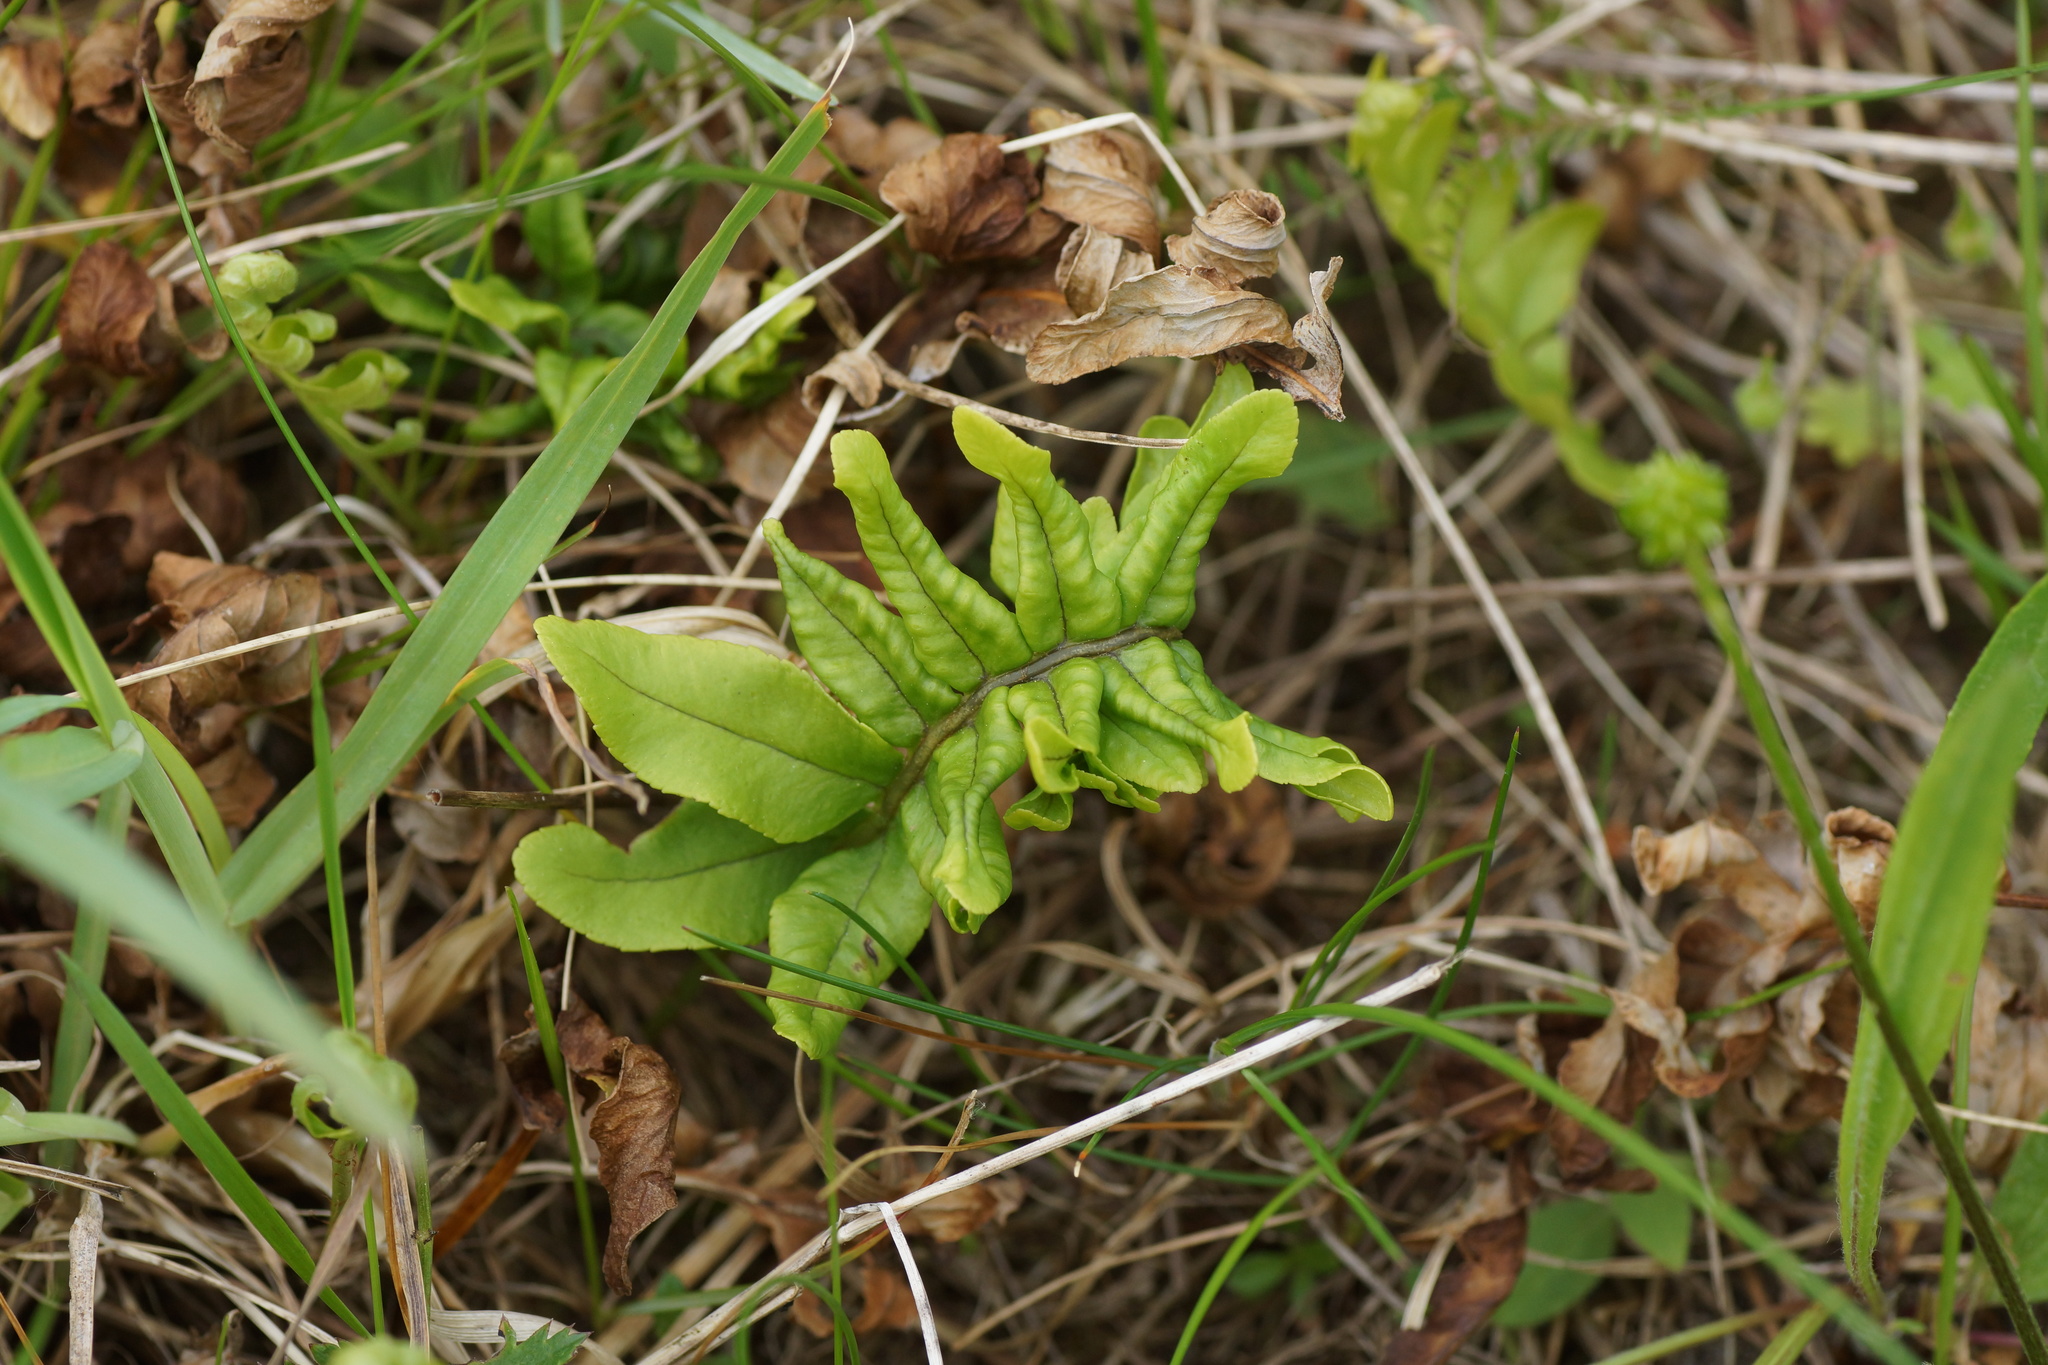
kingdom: Plantae
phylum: Tracheophyta
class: Polypodiopsida
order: Polypodiales
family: Polypodiaceae
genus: Polypodium
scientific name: Polypodium vulgare
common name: Common polypody
